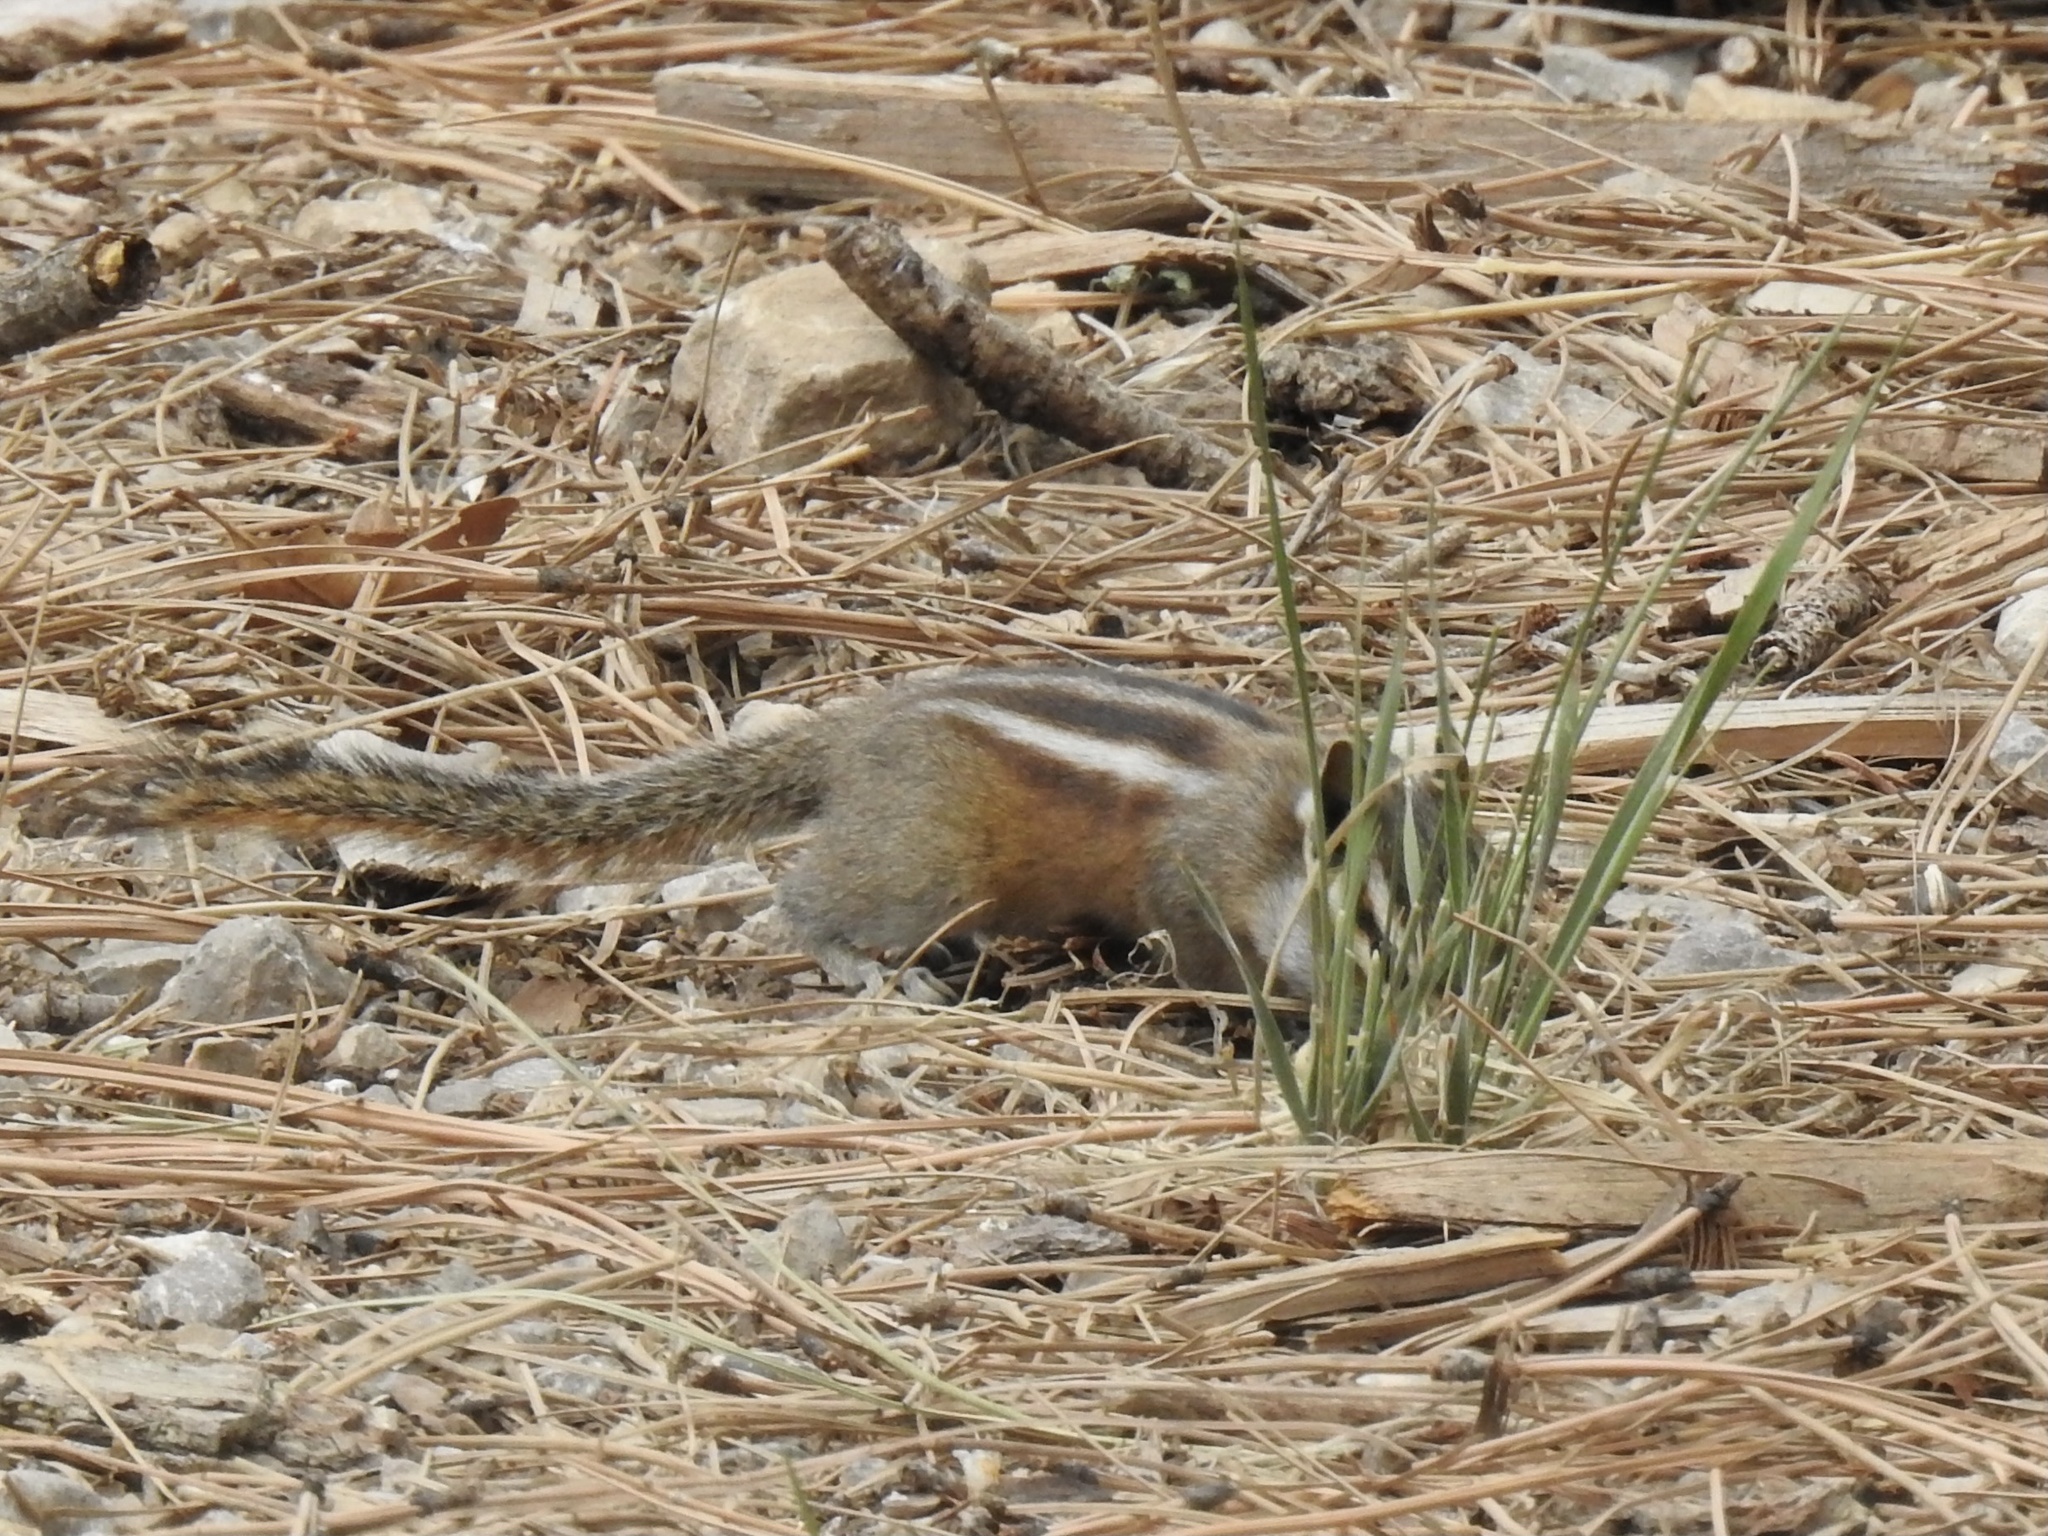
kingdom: Animalia
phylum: Chordata
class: Mammalia
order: Rodentia
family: Sciuridae
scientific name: Sciuridae
